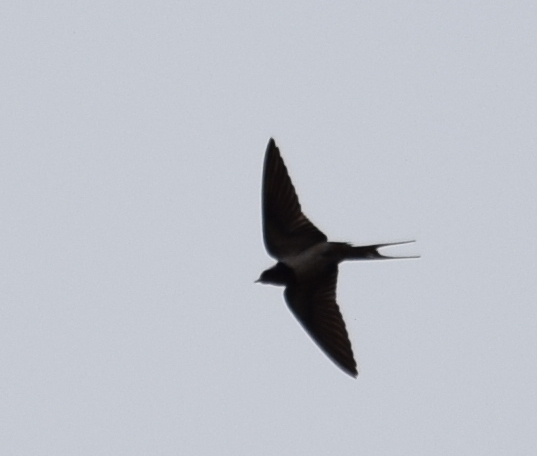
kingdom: Animalia
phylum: Chordata
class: Aves
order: Passeriformes
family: Hirundinidae
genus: Hirundo
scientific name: Hirundo rustica
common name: Barn swallow
